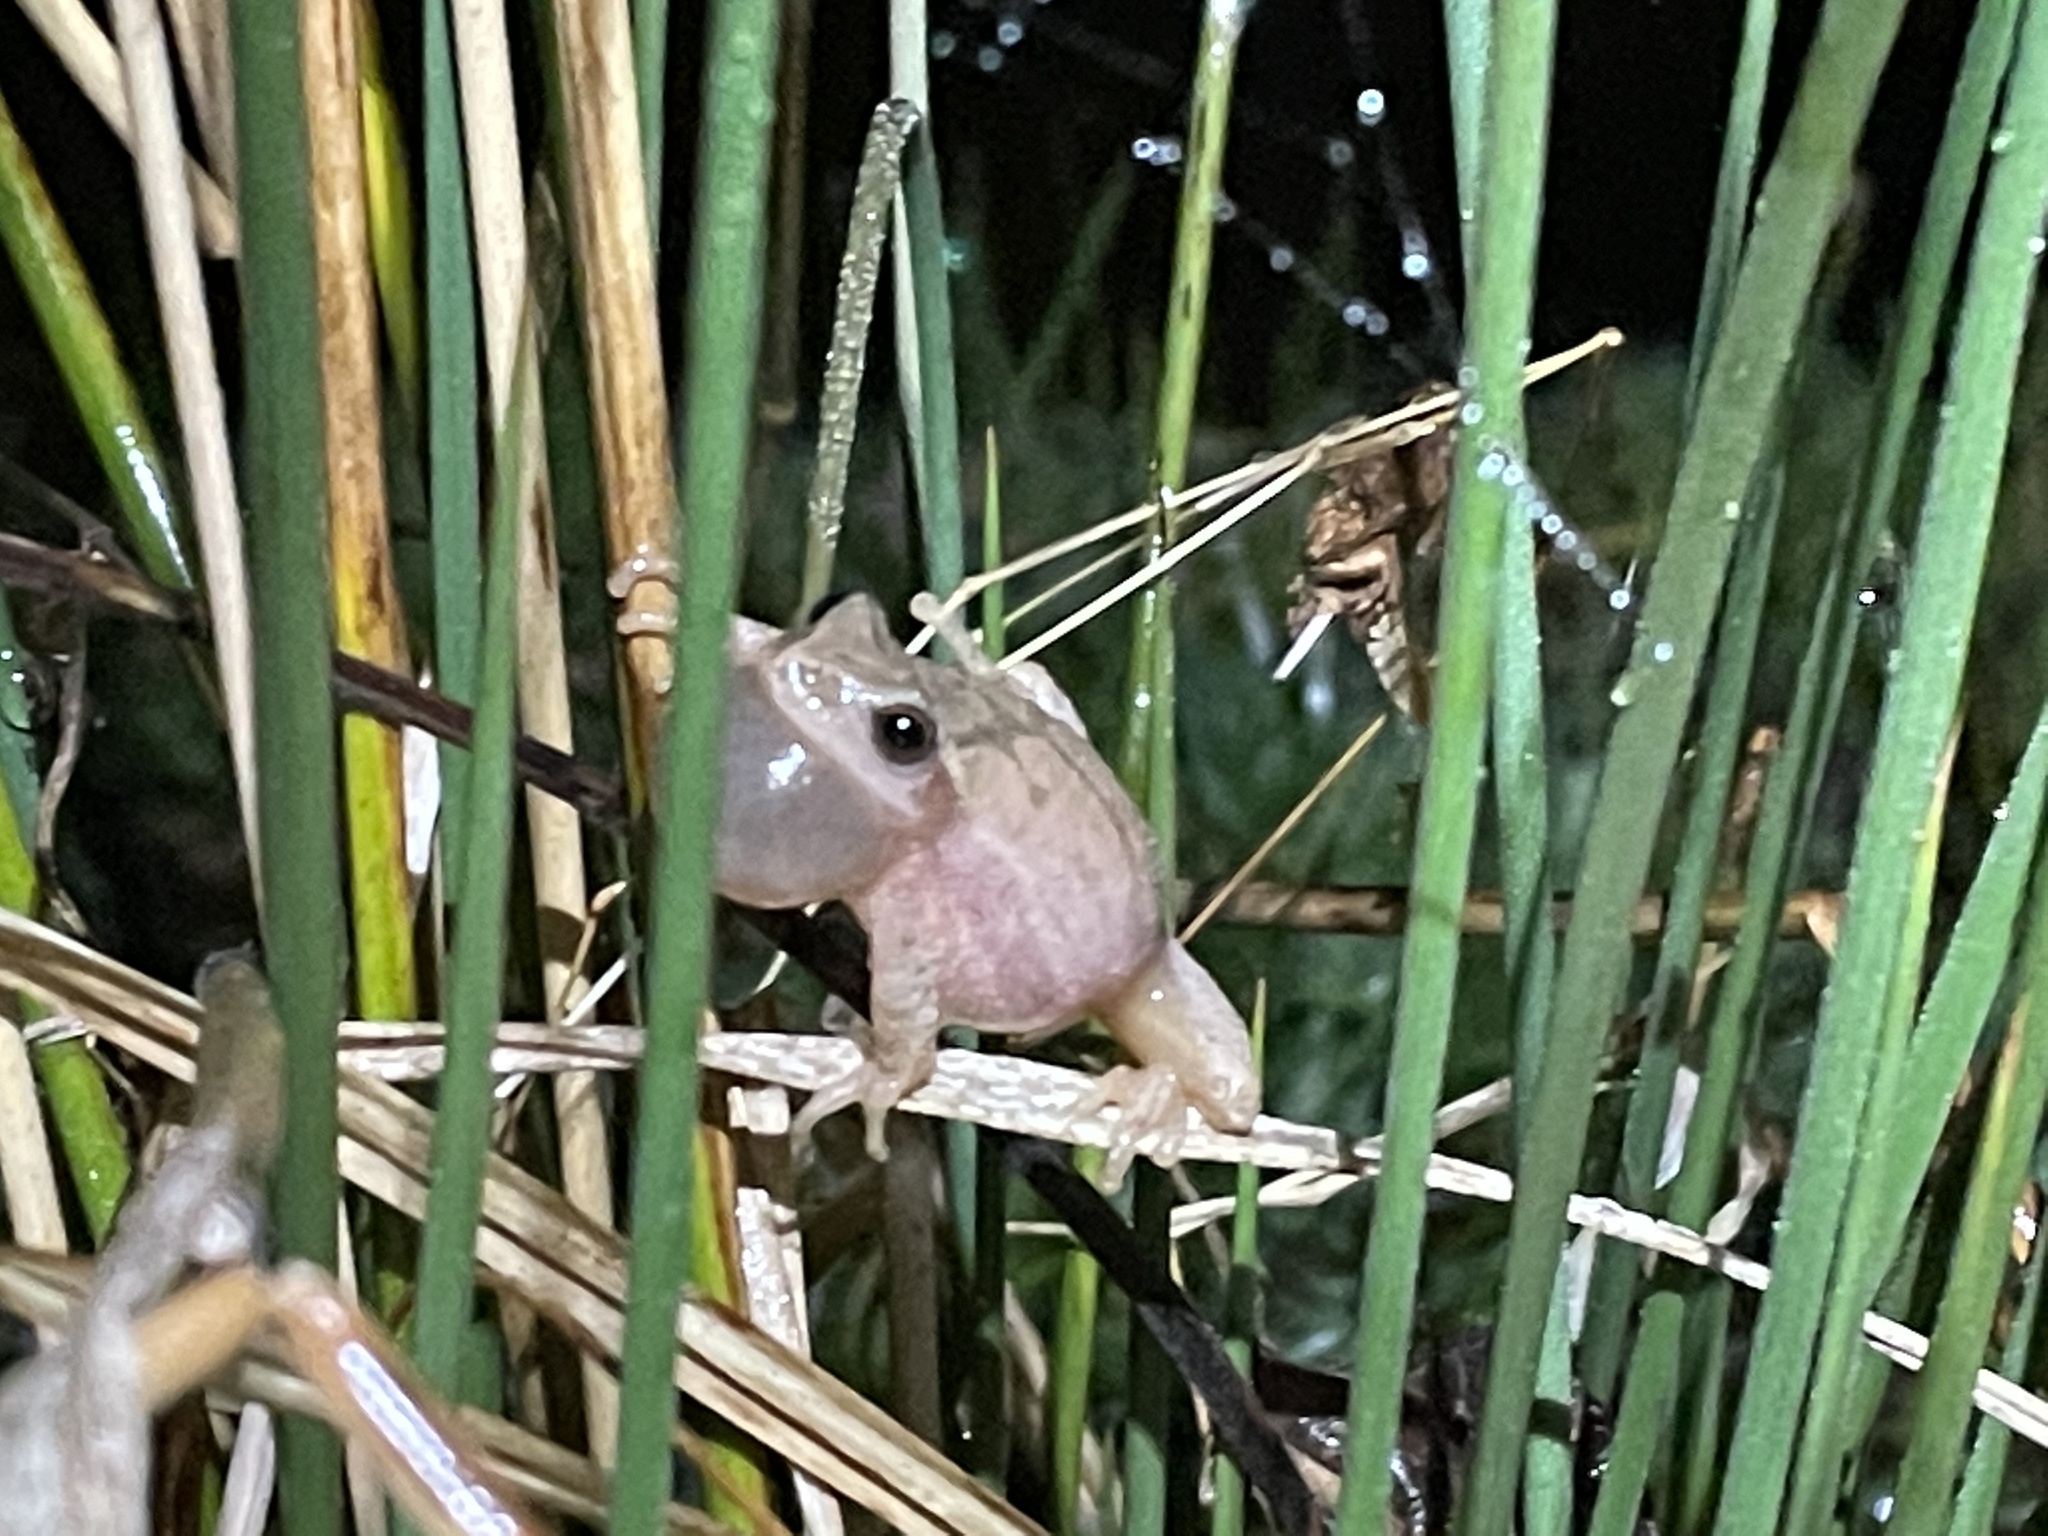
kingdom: Animalia
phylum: Chordata
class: Amphibia
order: Anura
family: Hylidae
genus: Pseudacris
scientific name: Pseudacris crucifer
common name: Spring peeper
